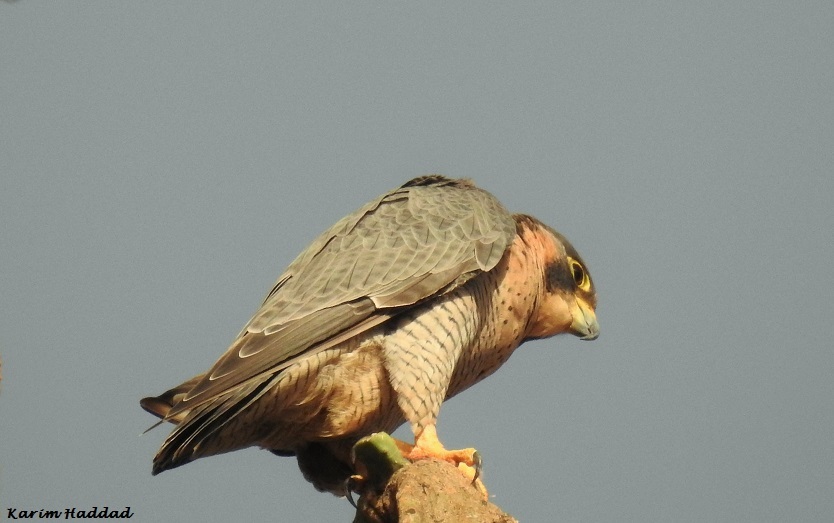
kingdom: Animalia
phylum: Chordata
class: Aves
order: Falconiformes
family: Falconidae
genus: Falco
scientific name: Falco peregrinus
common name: Peregrine falcon
